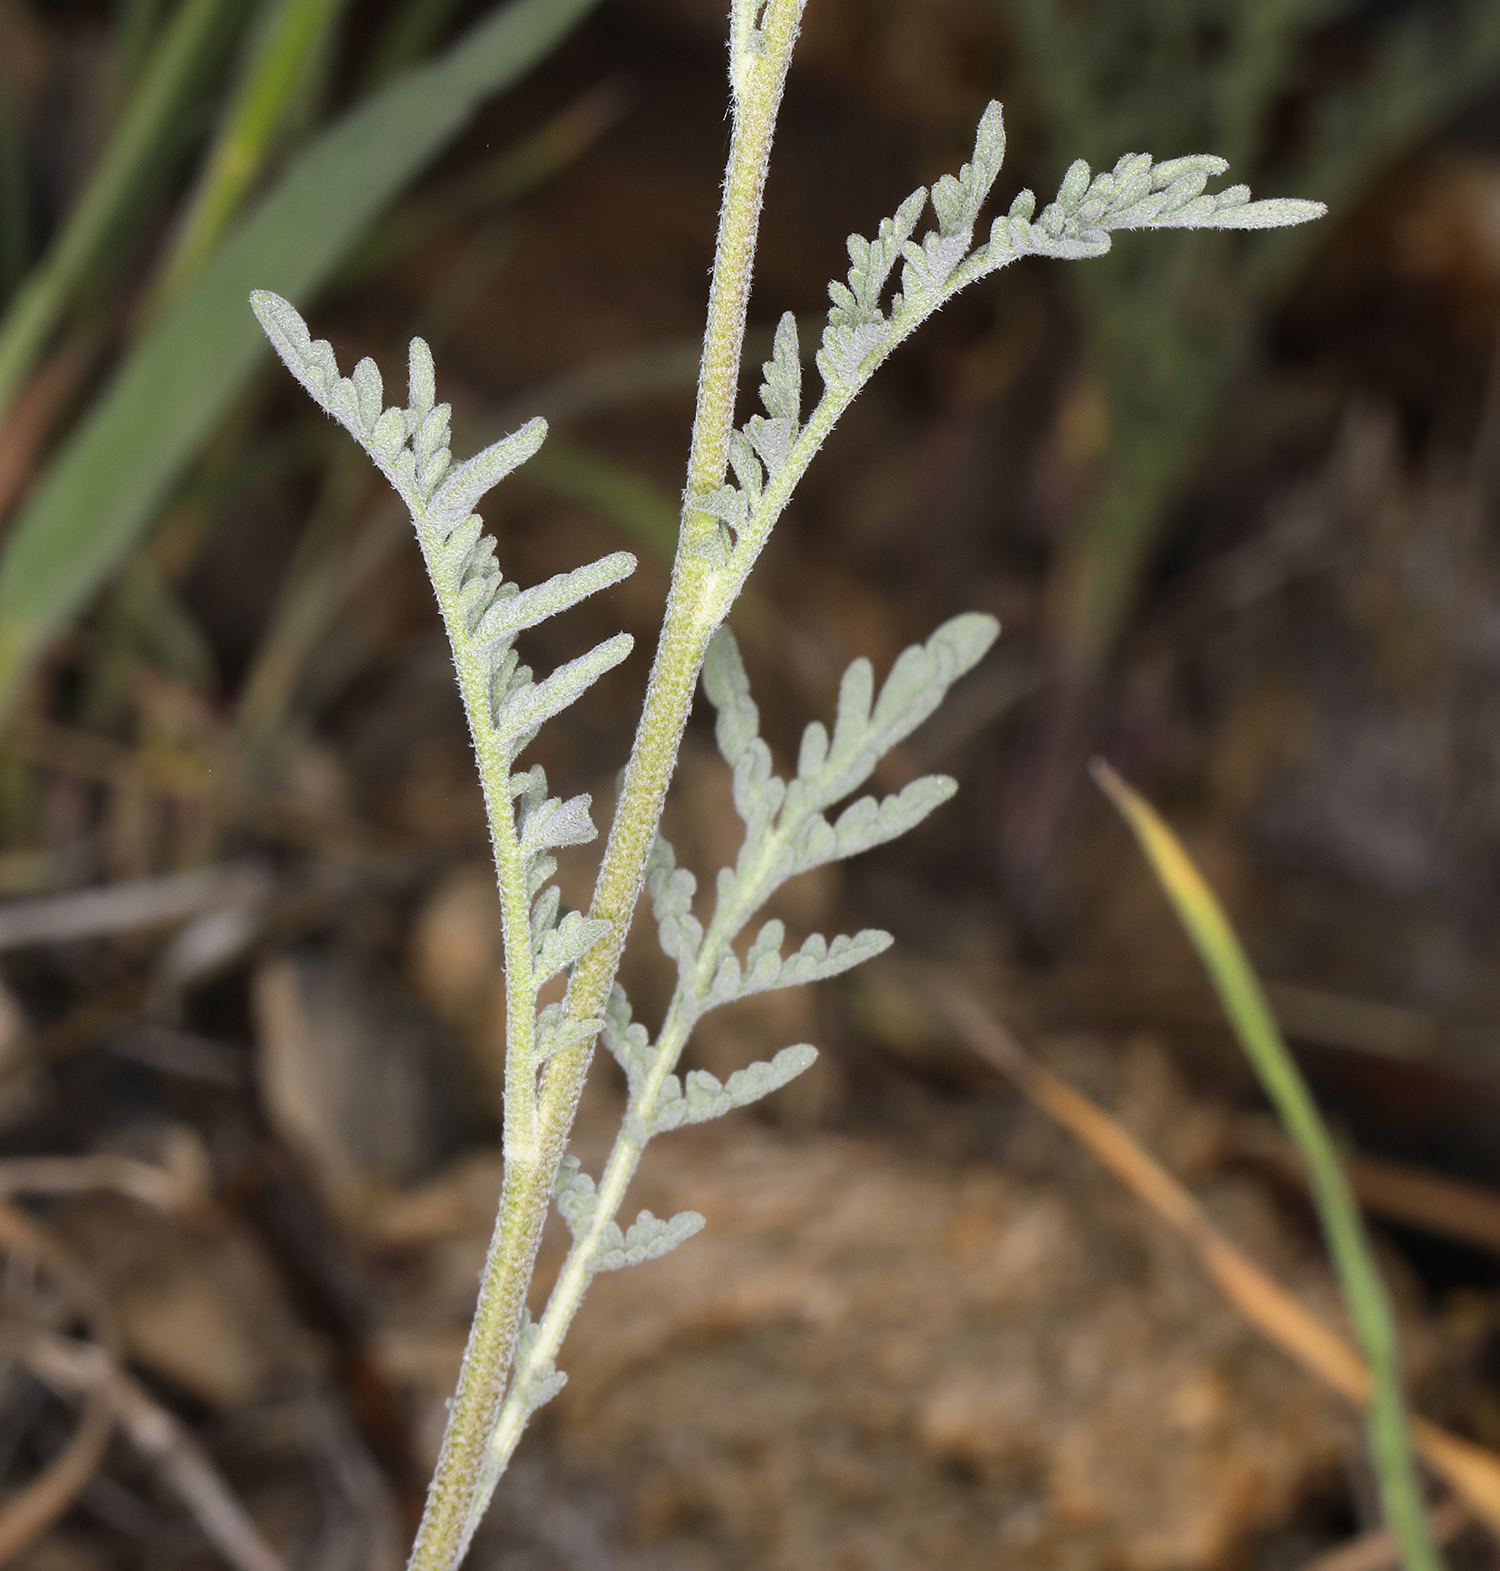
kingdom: Plantae
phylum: Tracheophyta
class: Magnoliopsida
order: Brassicales
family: Brassicaceae
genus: Descurainia
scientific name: Descurainia pinnata
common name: Western tansy mustard
